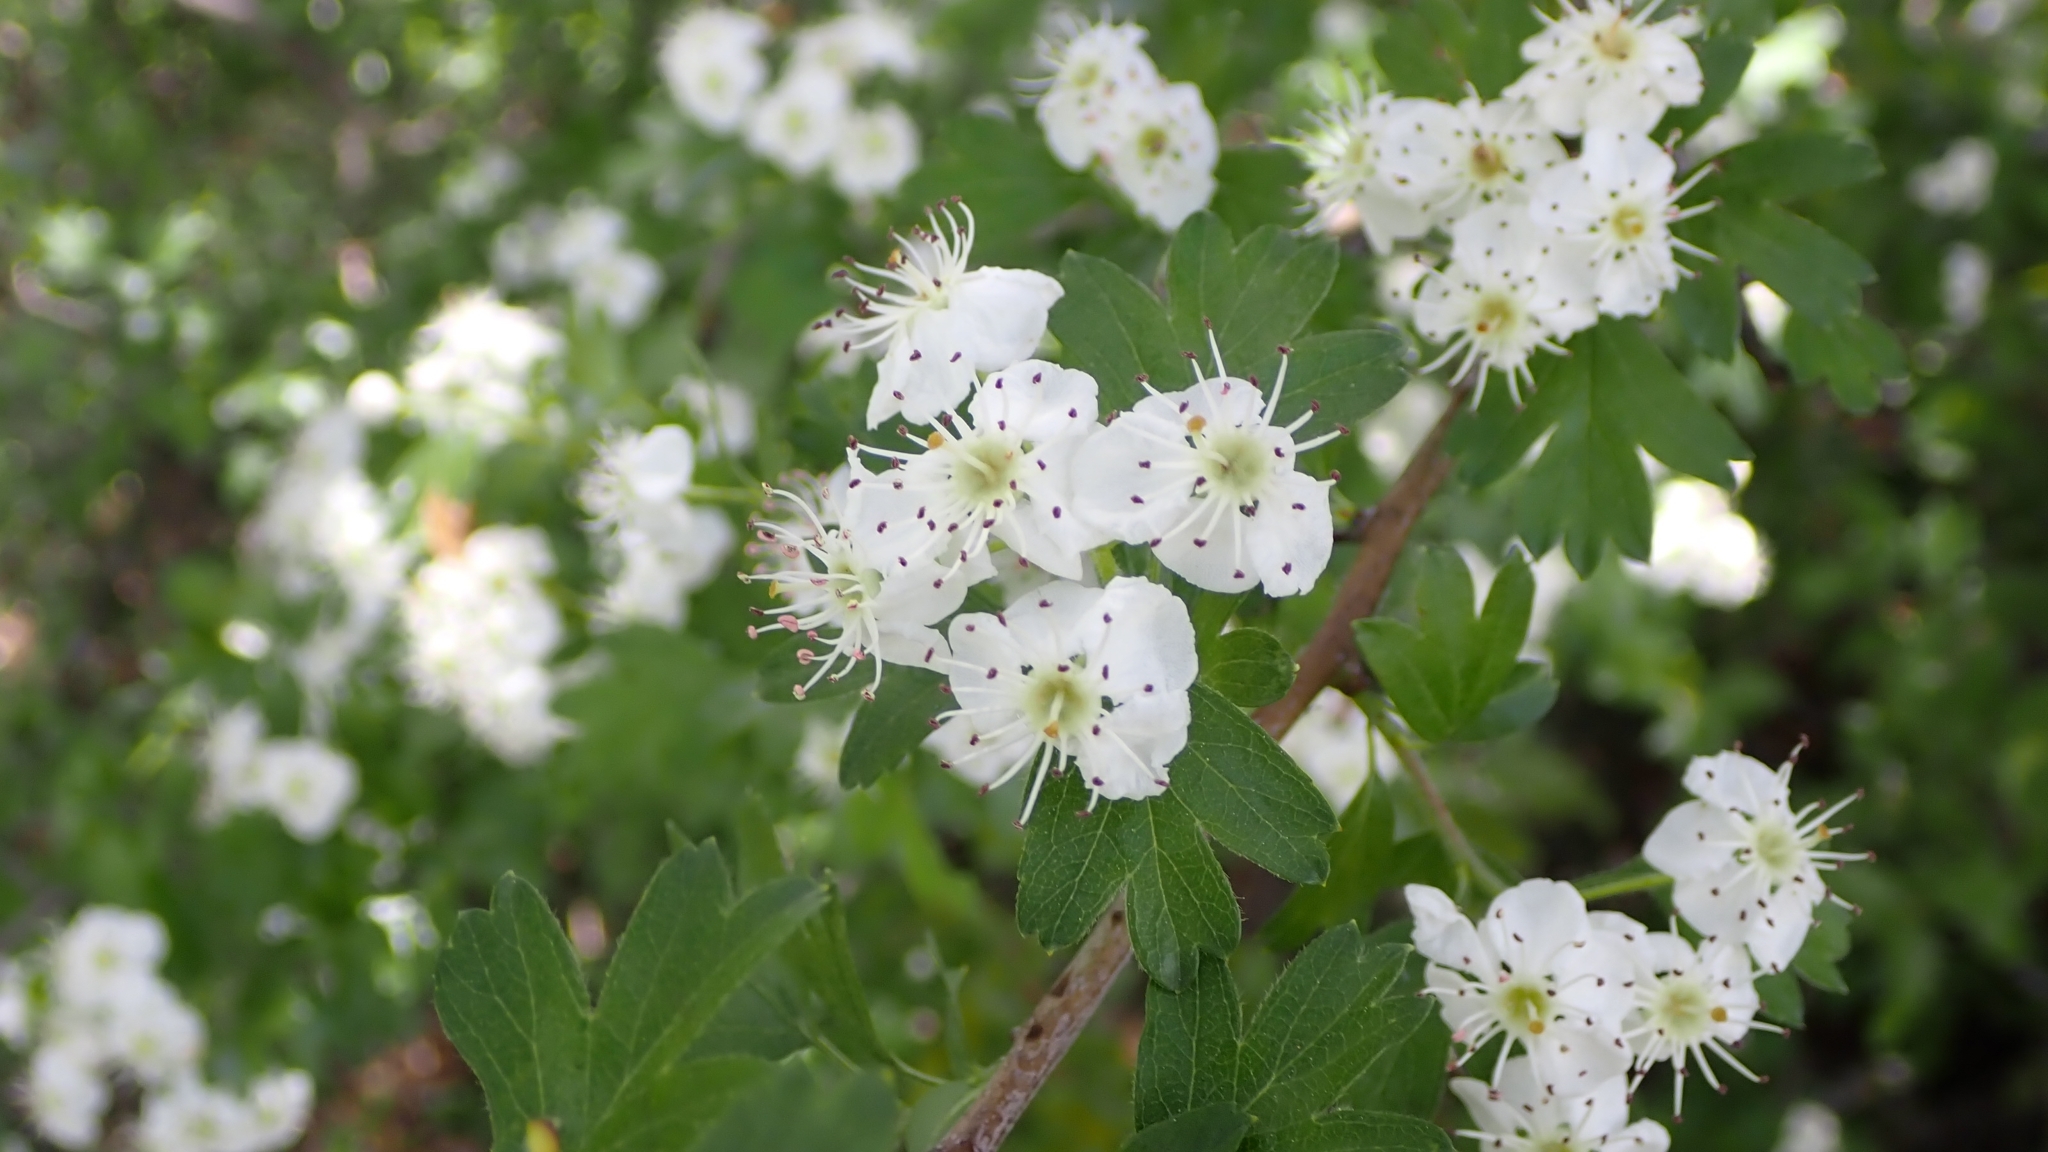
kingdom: Plantae
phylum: Tracheophyta
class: Magnoliopsida
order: Rosales
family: Rosaceae
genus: Crataegus
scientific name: Crataegus monogyna
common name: Hawthorn
